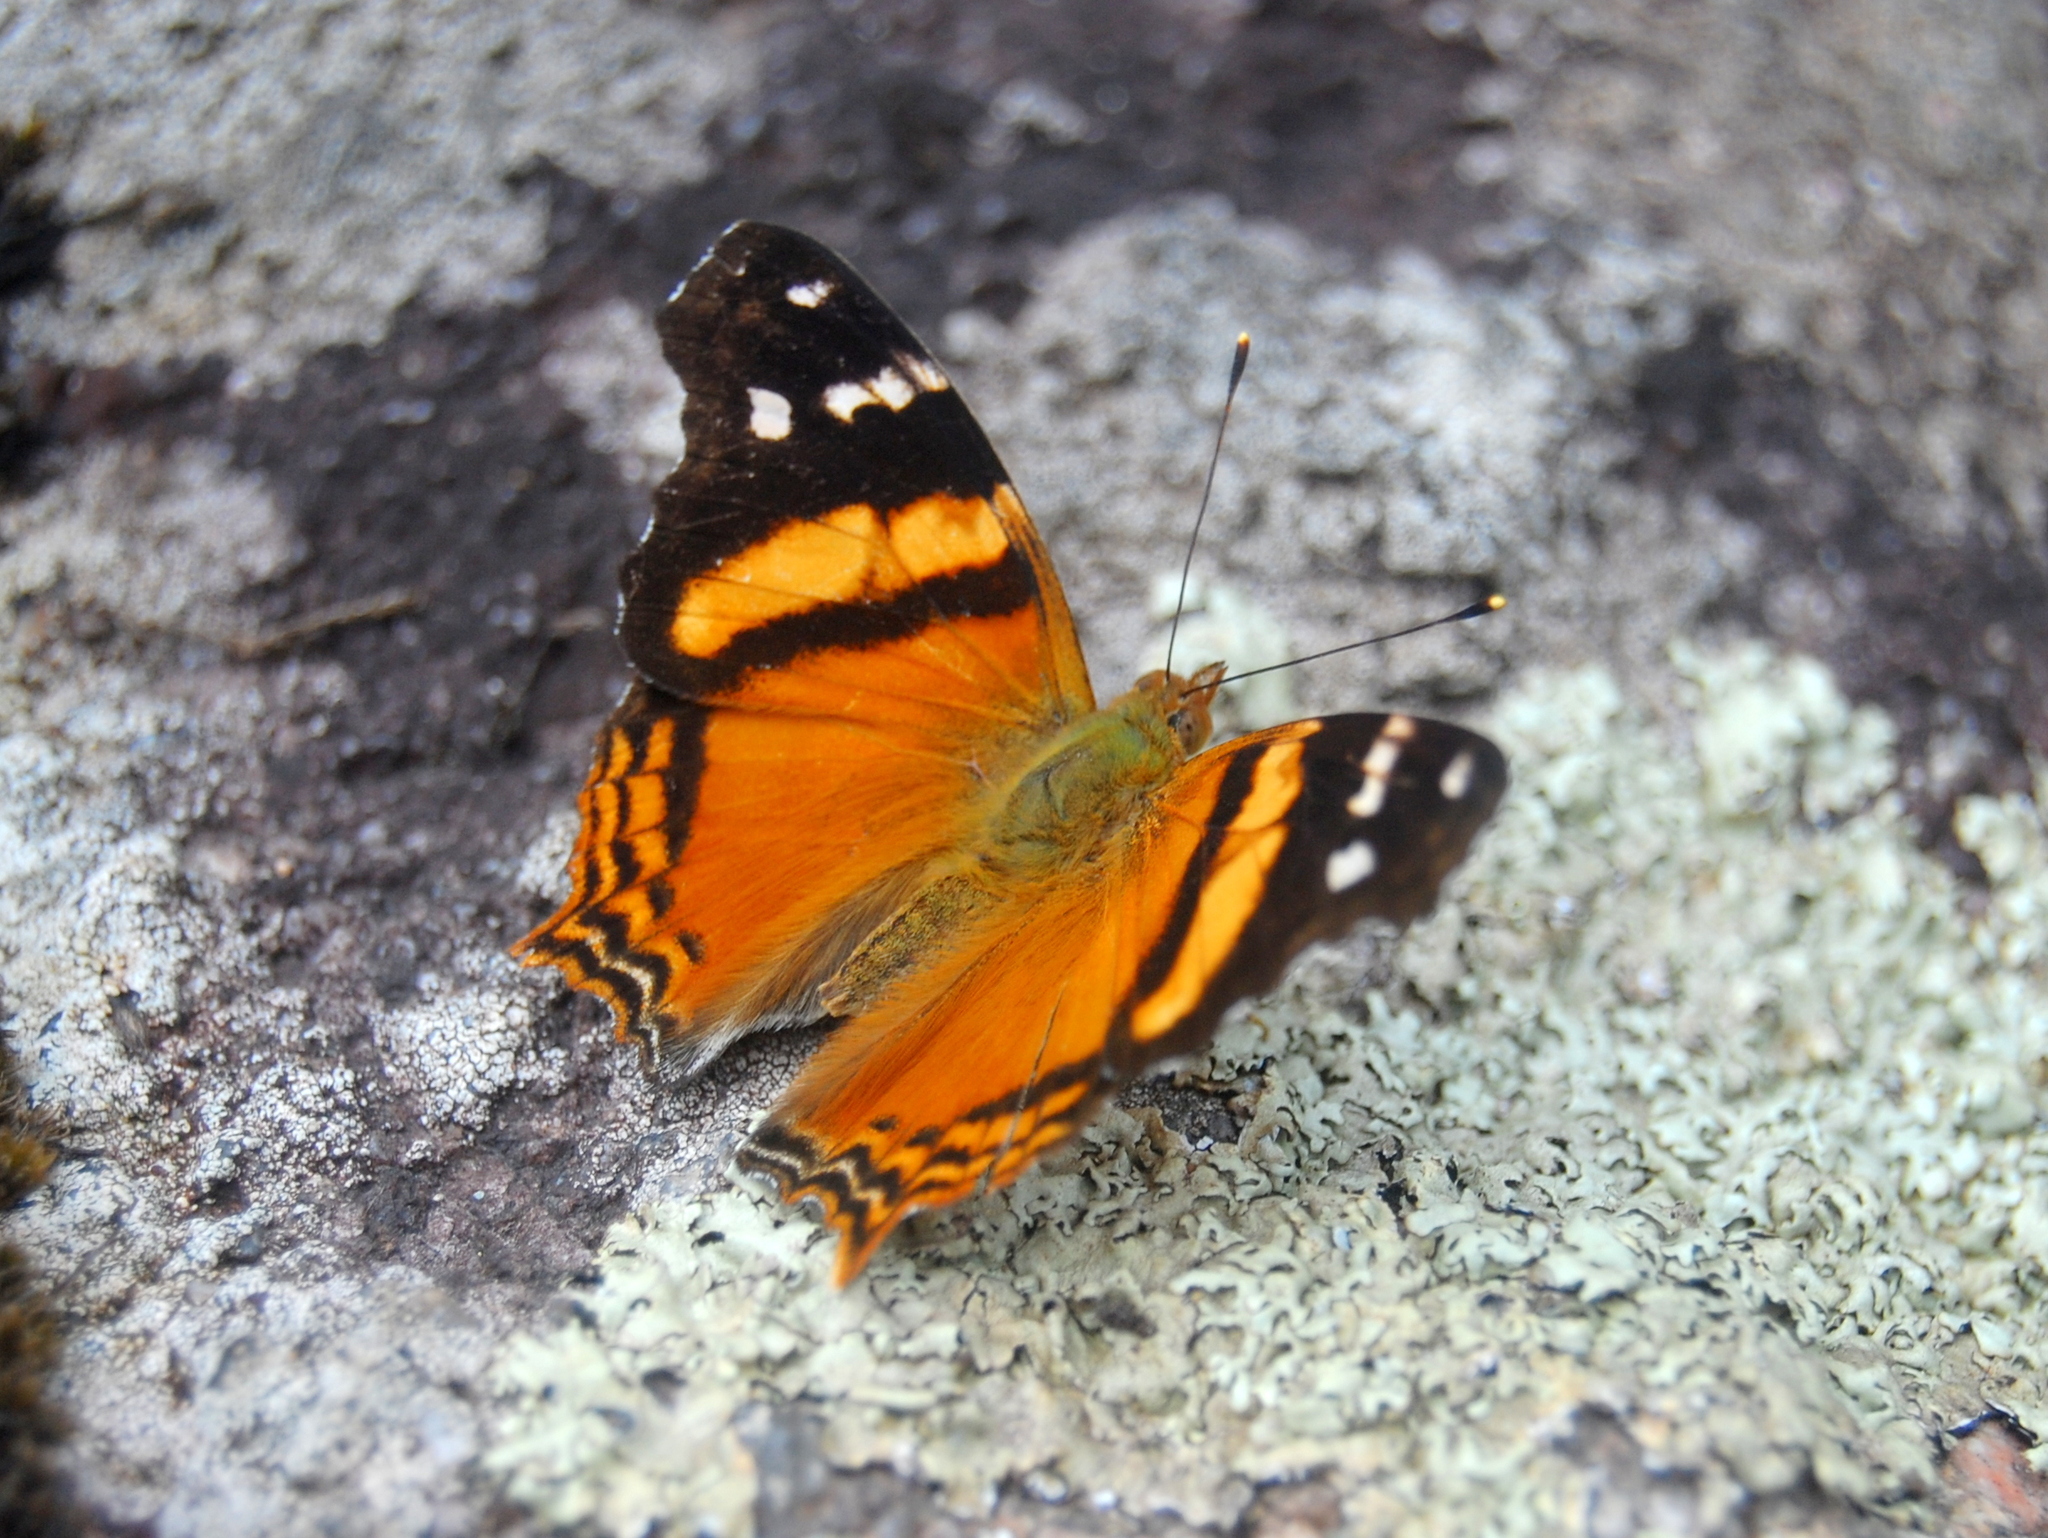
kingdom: Animalia
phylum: Arthropoda
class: Insecta
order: Lepidoptera
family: Nymphalidae
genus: Hypanartia
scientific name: Hypanartia bella
